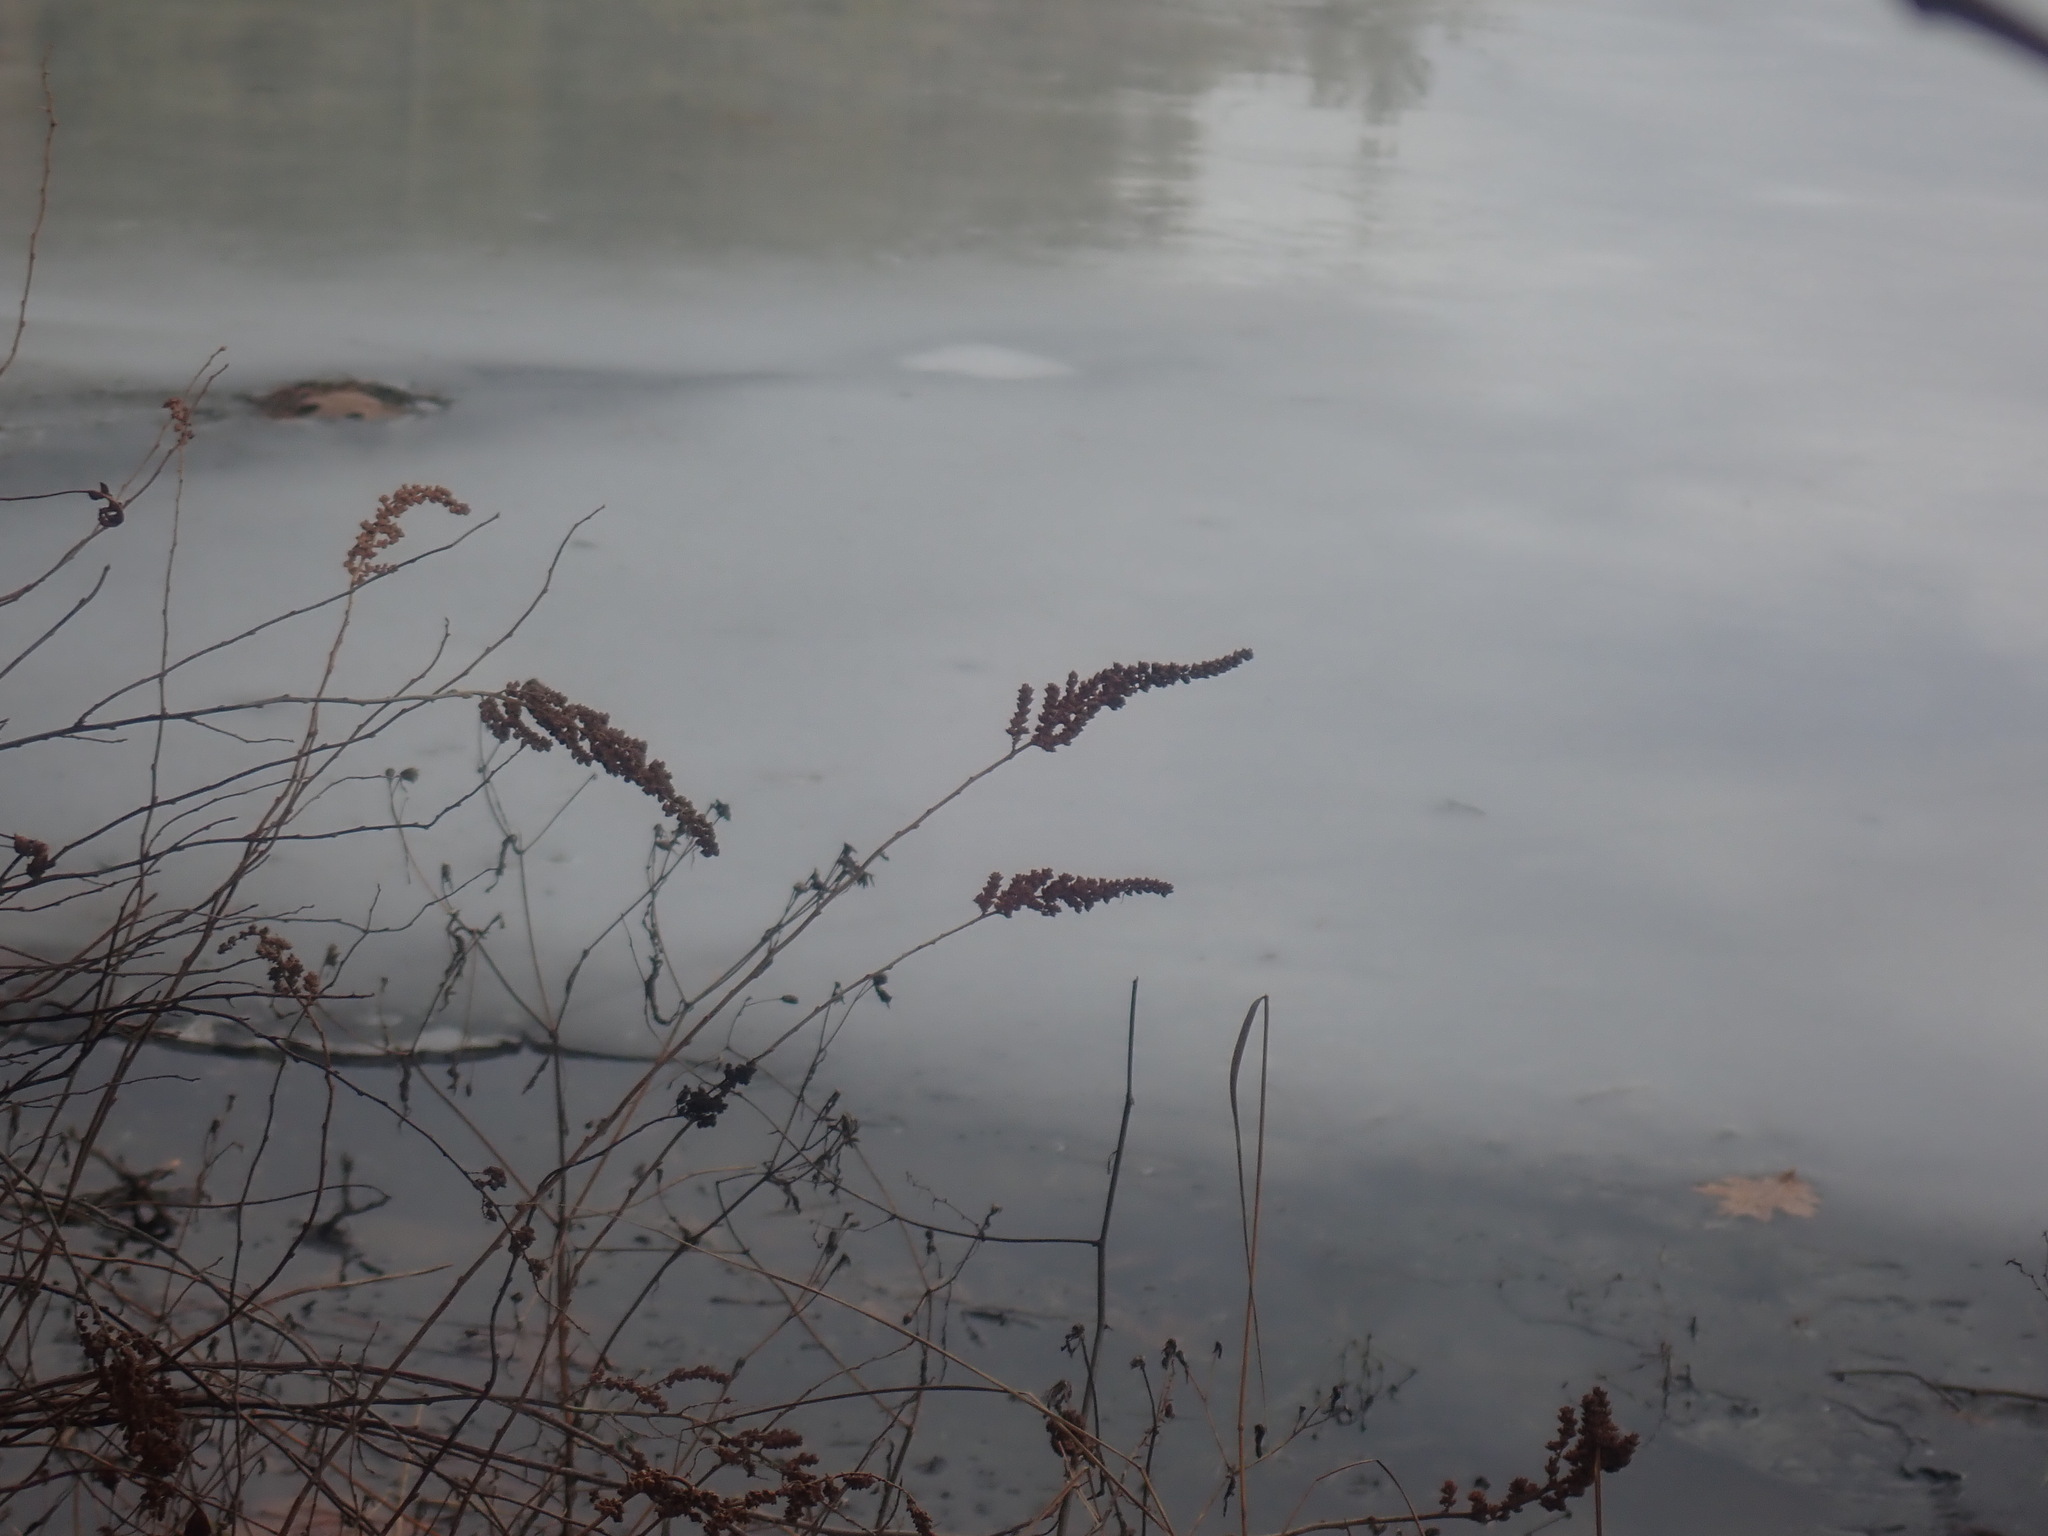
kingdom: Plantae
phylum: Tracheophyta
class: Magnoliopsida
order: Rosales
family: Rosaceae
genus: Spiraea
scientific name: Spiraea tomentosa
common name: Hardhack
